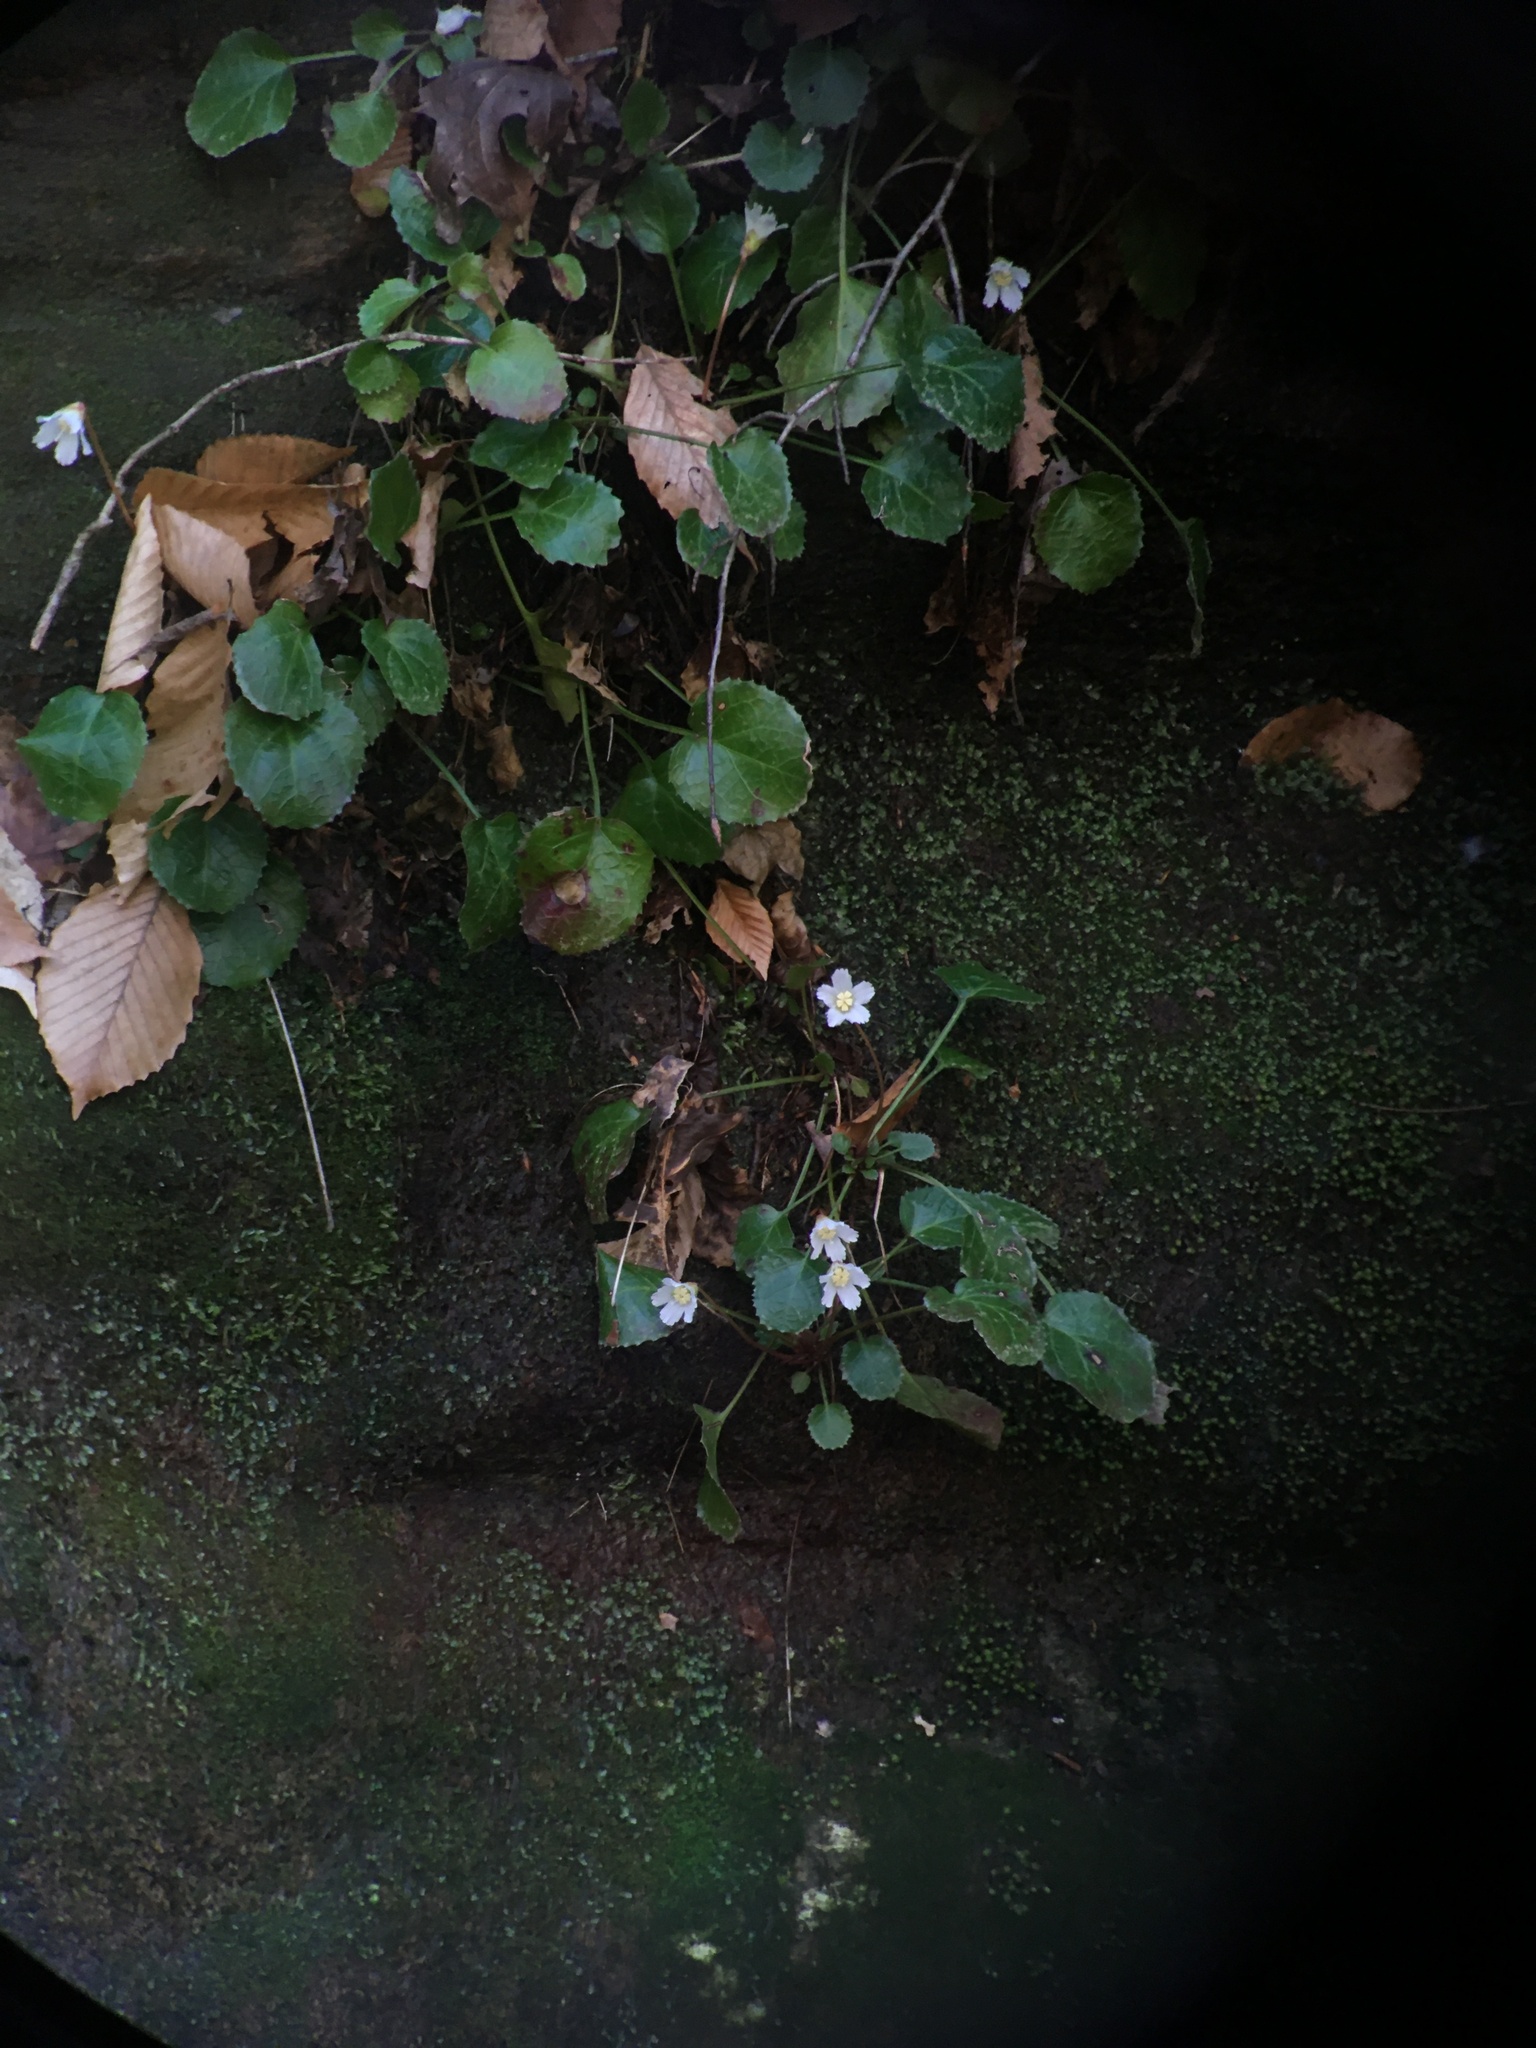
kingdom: Plantae
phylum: Tracheophyta
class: Magnoliopsida
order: Ericales
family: Diapensiaceae
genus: Shortia
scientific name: Shortia galacifolia
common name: Shortia
